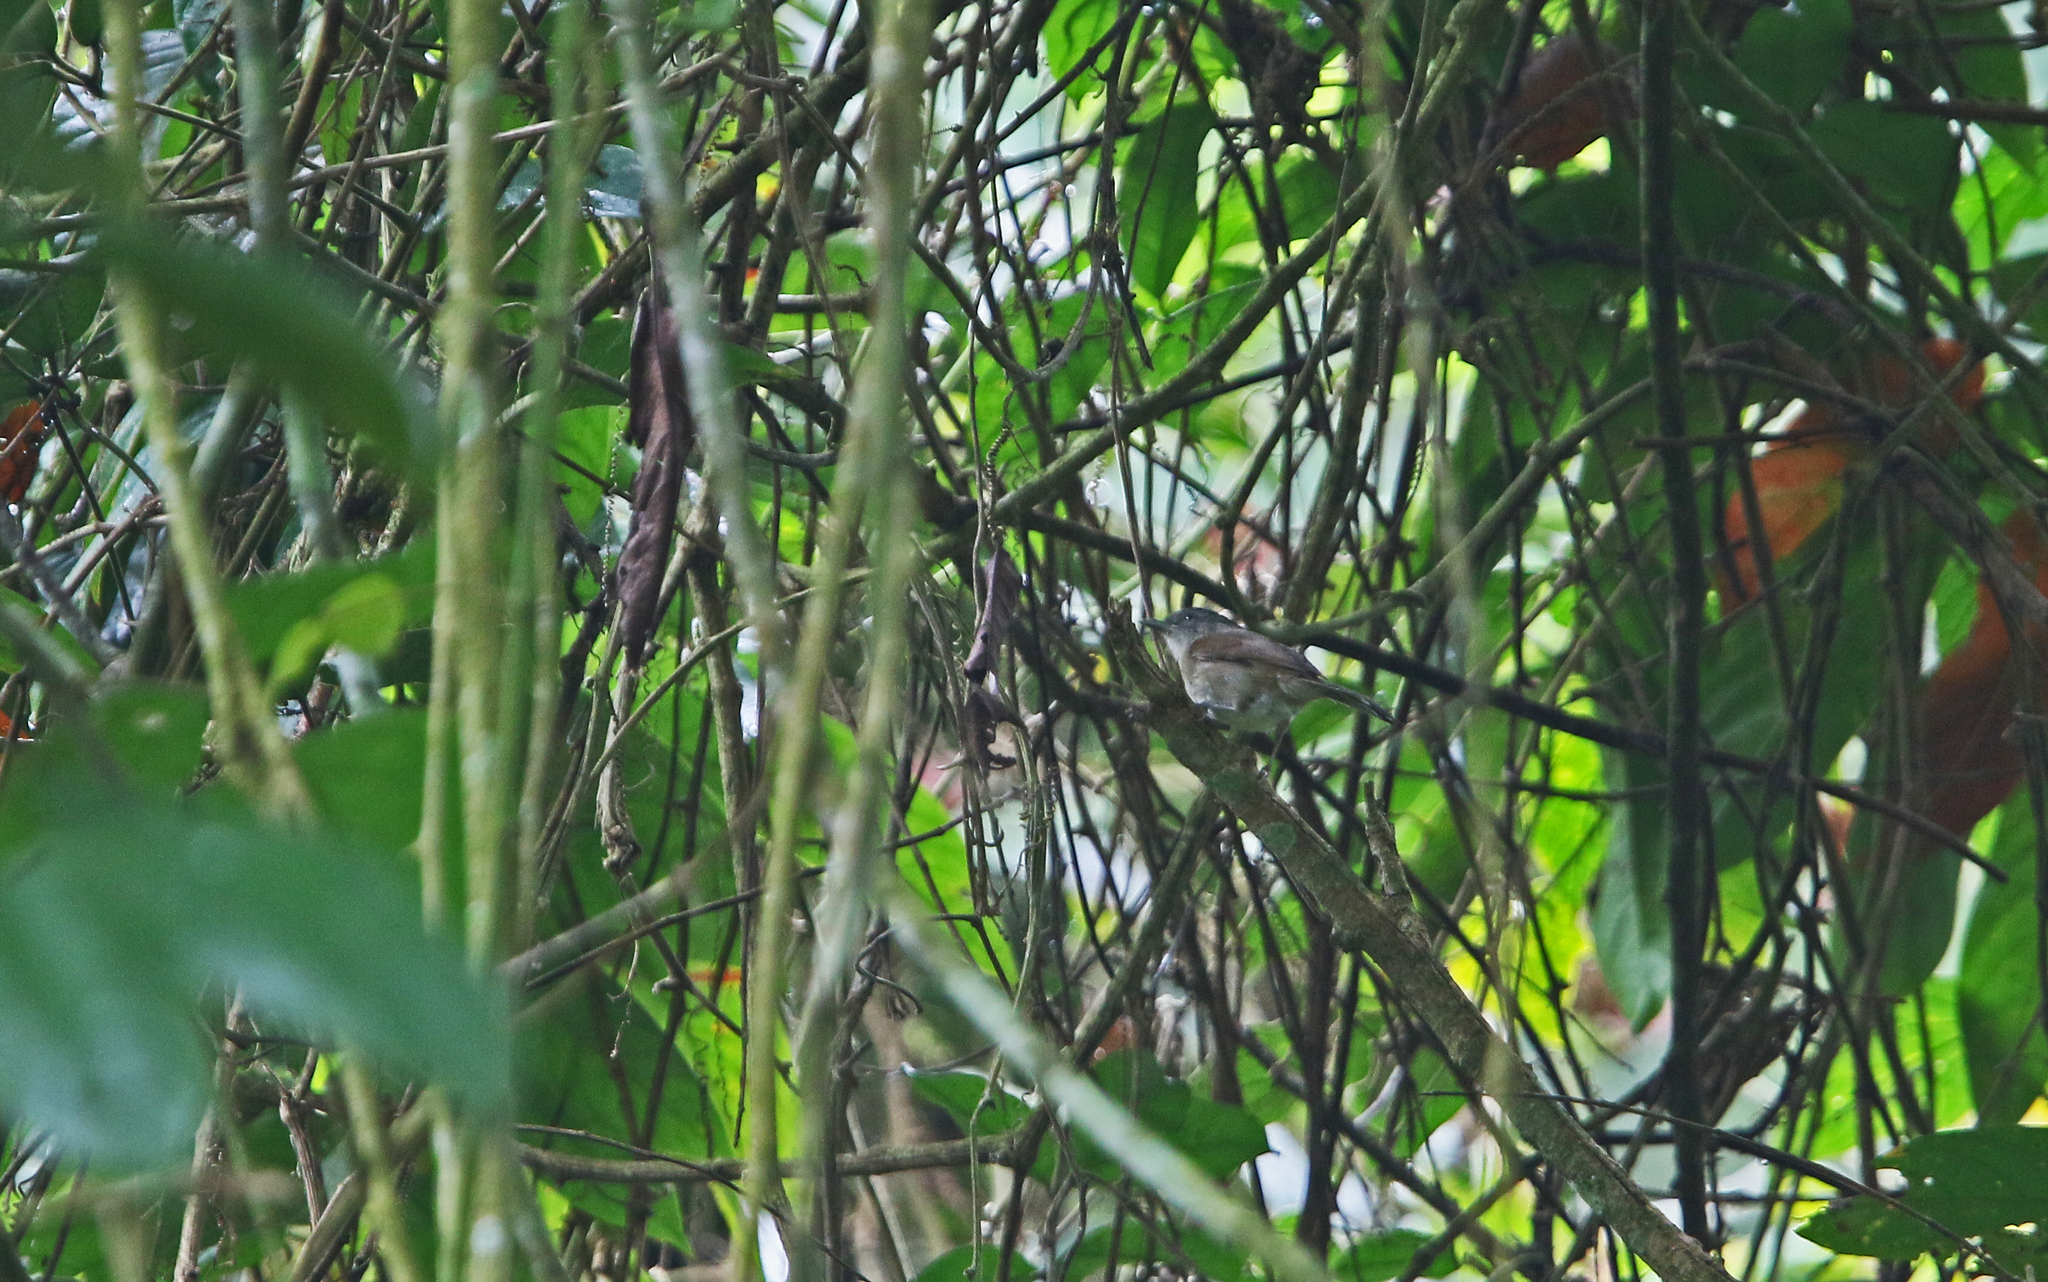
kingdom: Animalia
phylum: Chordata
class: Aves
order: Passeriformes
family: Pellorneidae
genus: Alcippe
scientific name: Alcippe grotei
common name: Black-browed fulvetta
